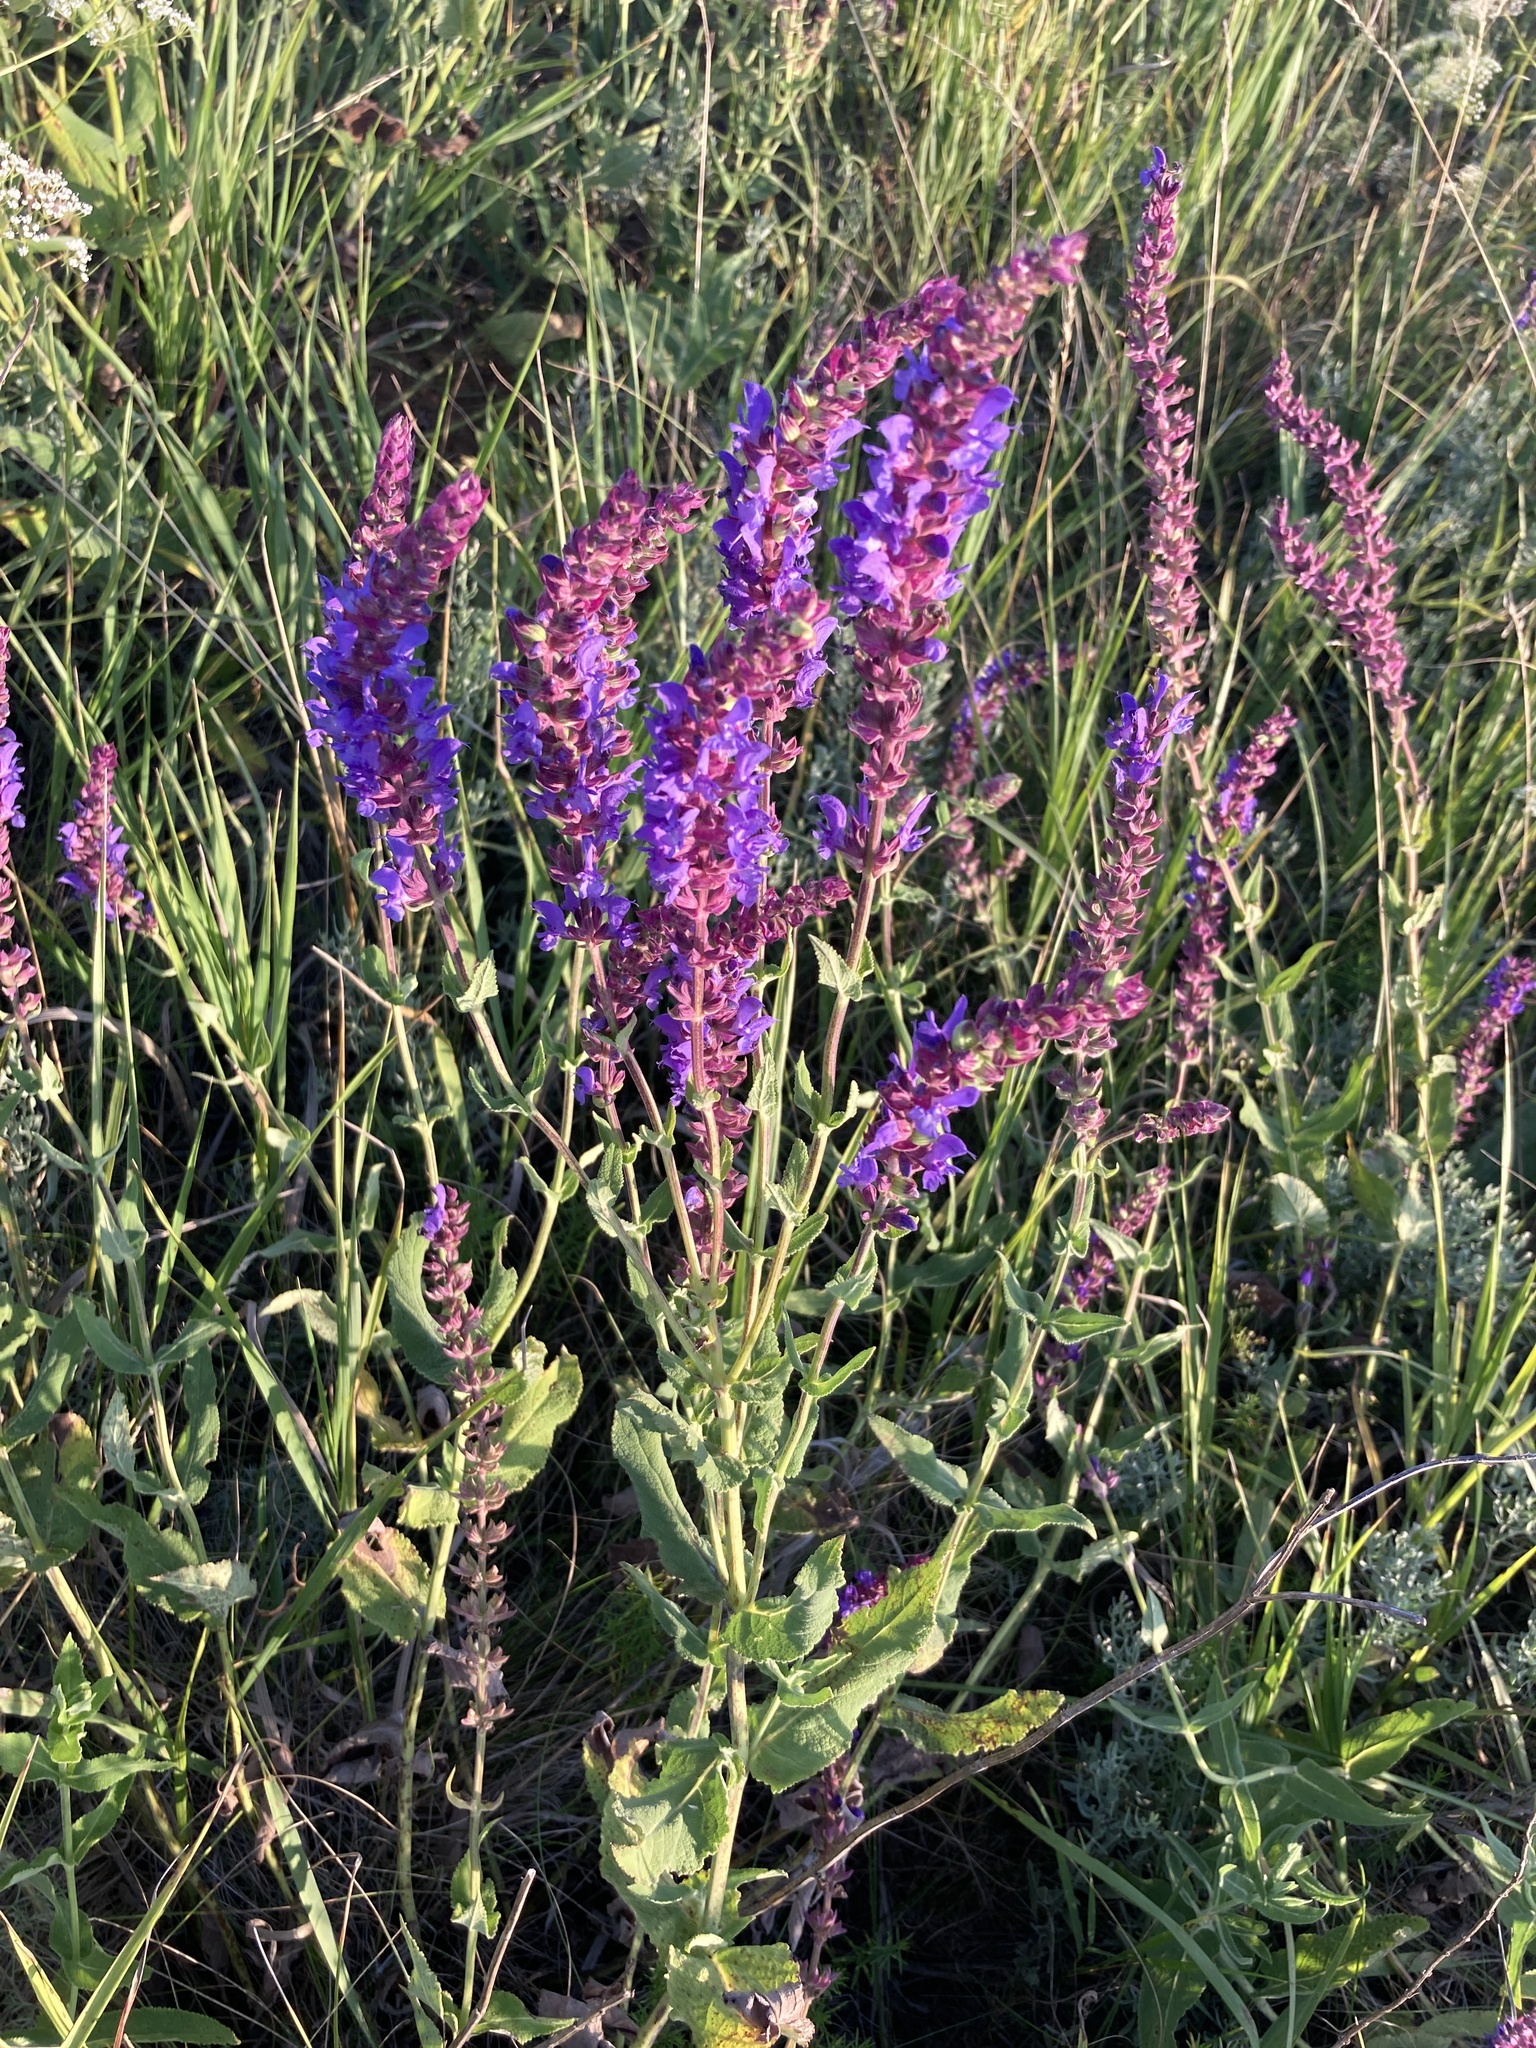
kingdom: Plantae
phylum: Tracheophyta
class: Magnoliopsida
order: Lamiales
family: Lamiaceae
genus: Salvia
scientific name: Salvia nemorosa
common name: Balkan clary
